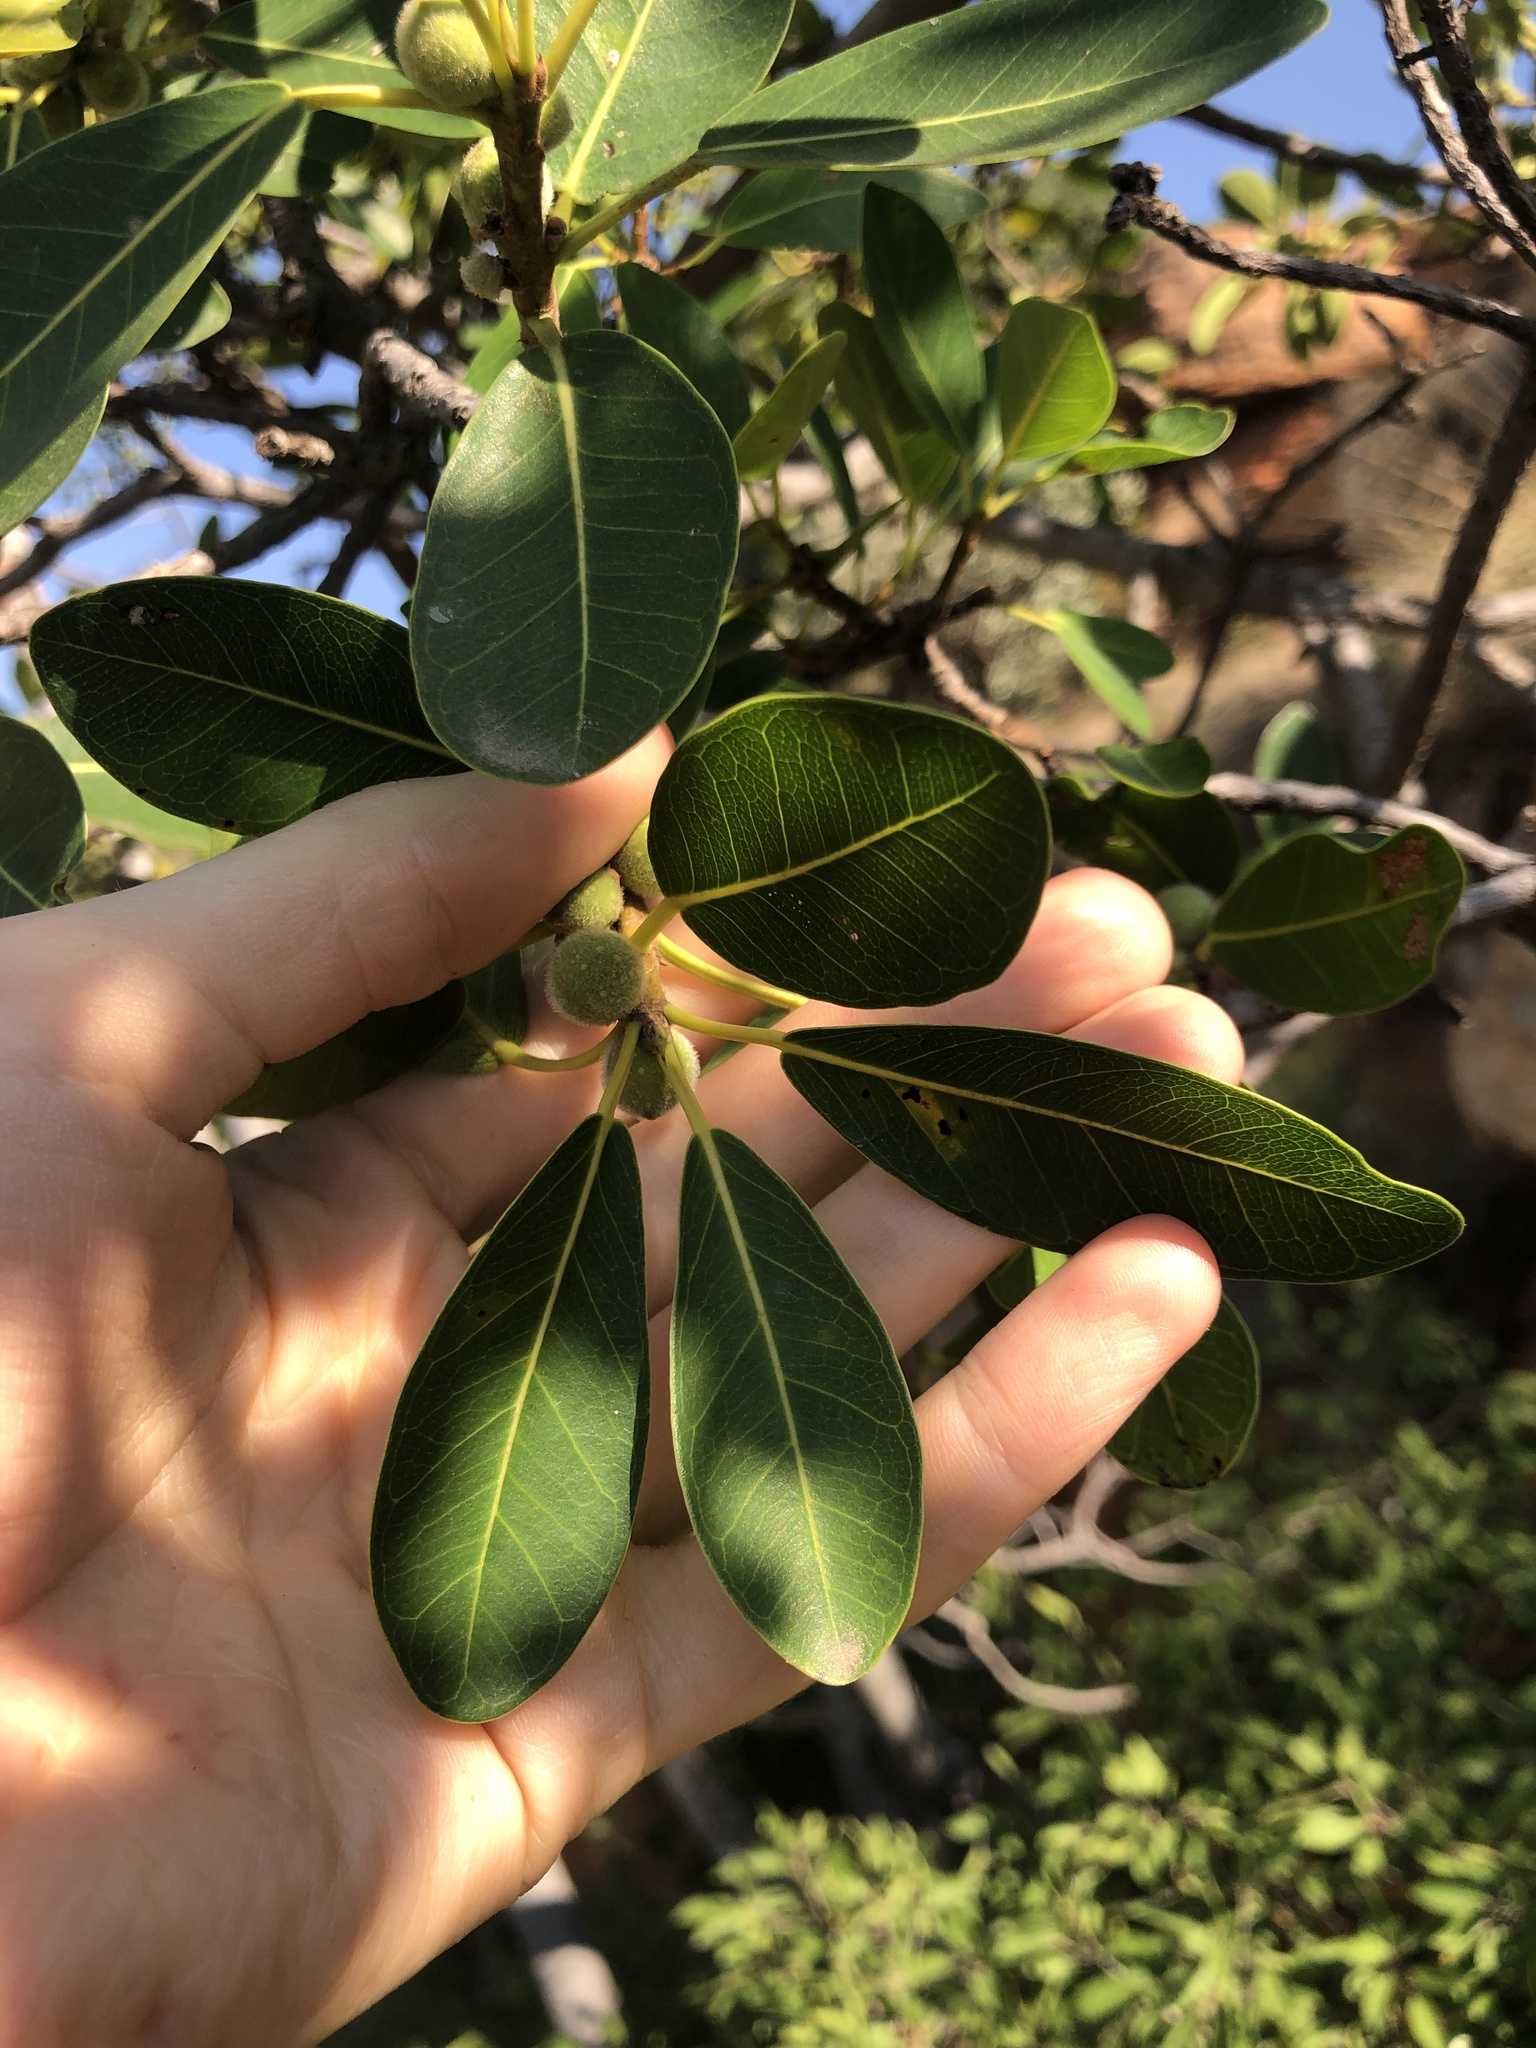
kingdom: Plantae
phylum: Tracheophyta
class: Magnoliopsida
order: Rosales
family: Moraceae
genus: Ficus
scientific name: Ficus thonningii
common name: Fig
